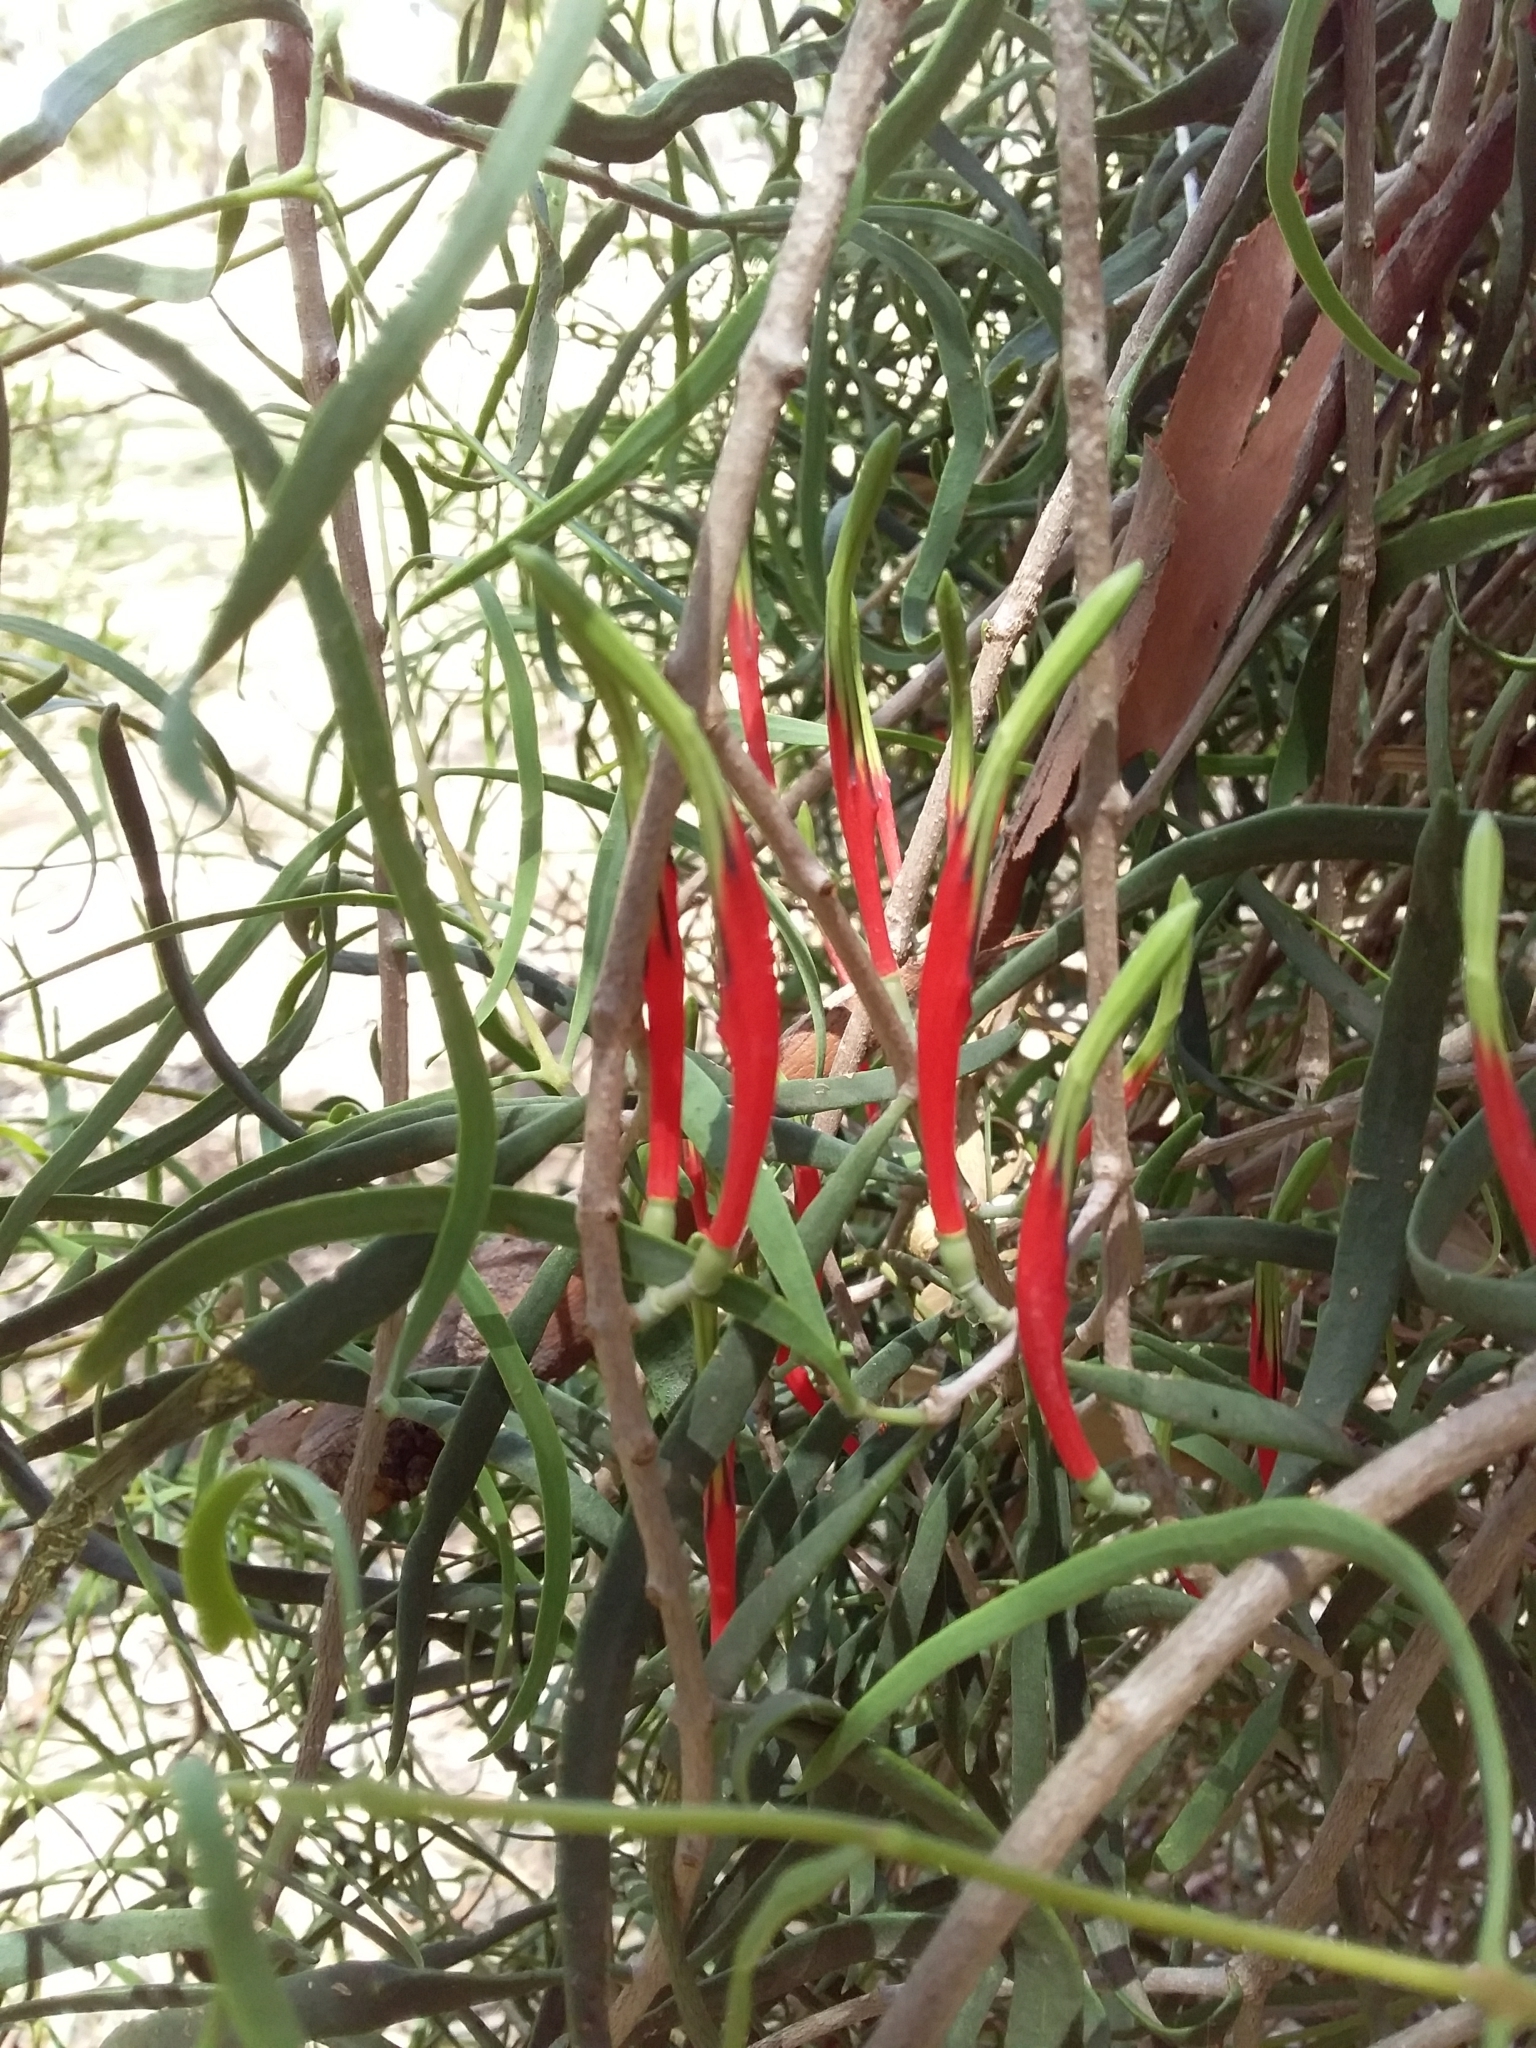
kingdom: Plantae
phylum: Tracheophyta
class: Magnoliopsida
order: Santalales
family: Loranthaceae
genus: Lysiana
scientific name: Lysiana exocarpi
